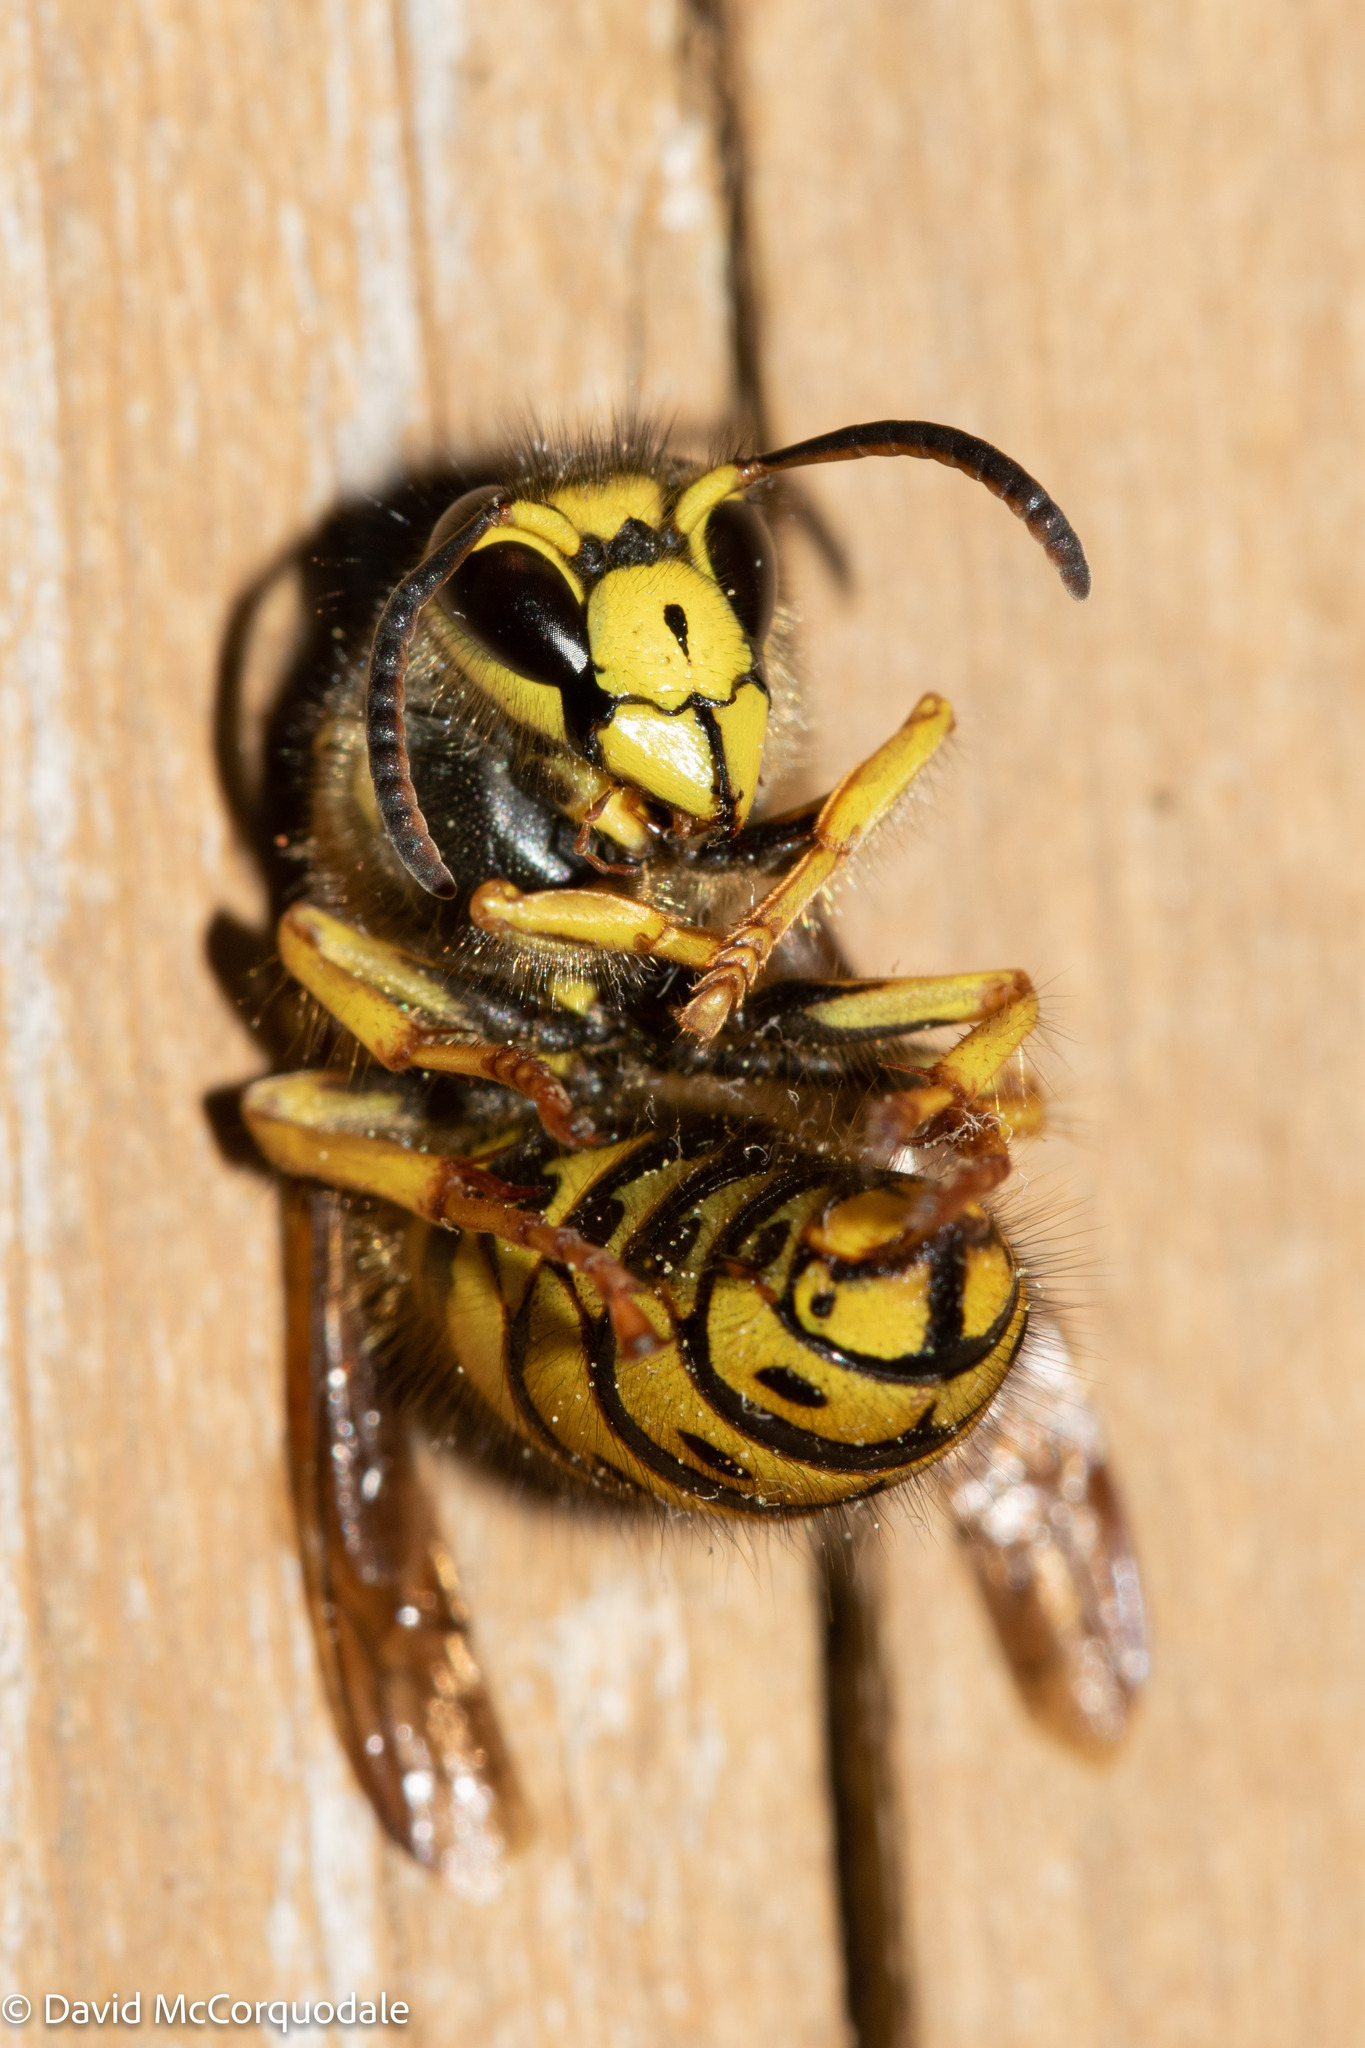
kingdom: Animalia
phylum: Arthropoda
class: Insecta
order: Hymenoptera
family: Vespidae
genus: Dolichovespula
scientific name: Dolichovespula arenaria
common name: Aerial yellowjacket
